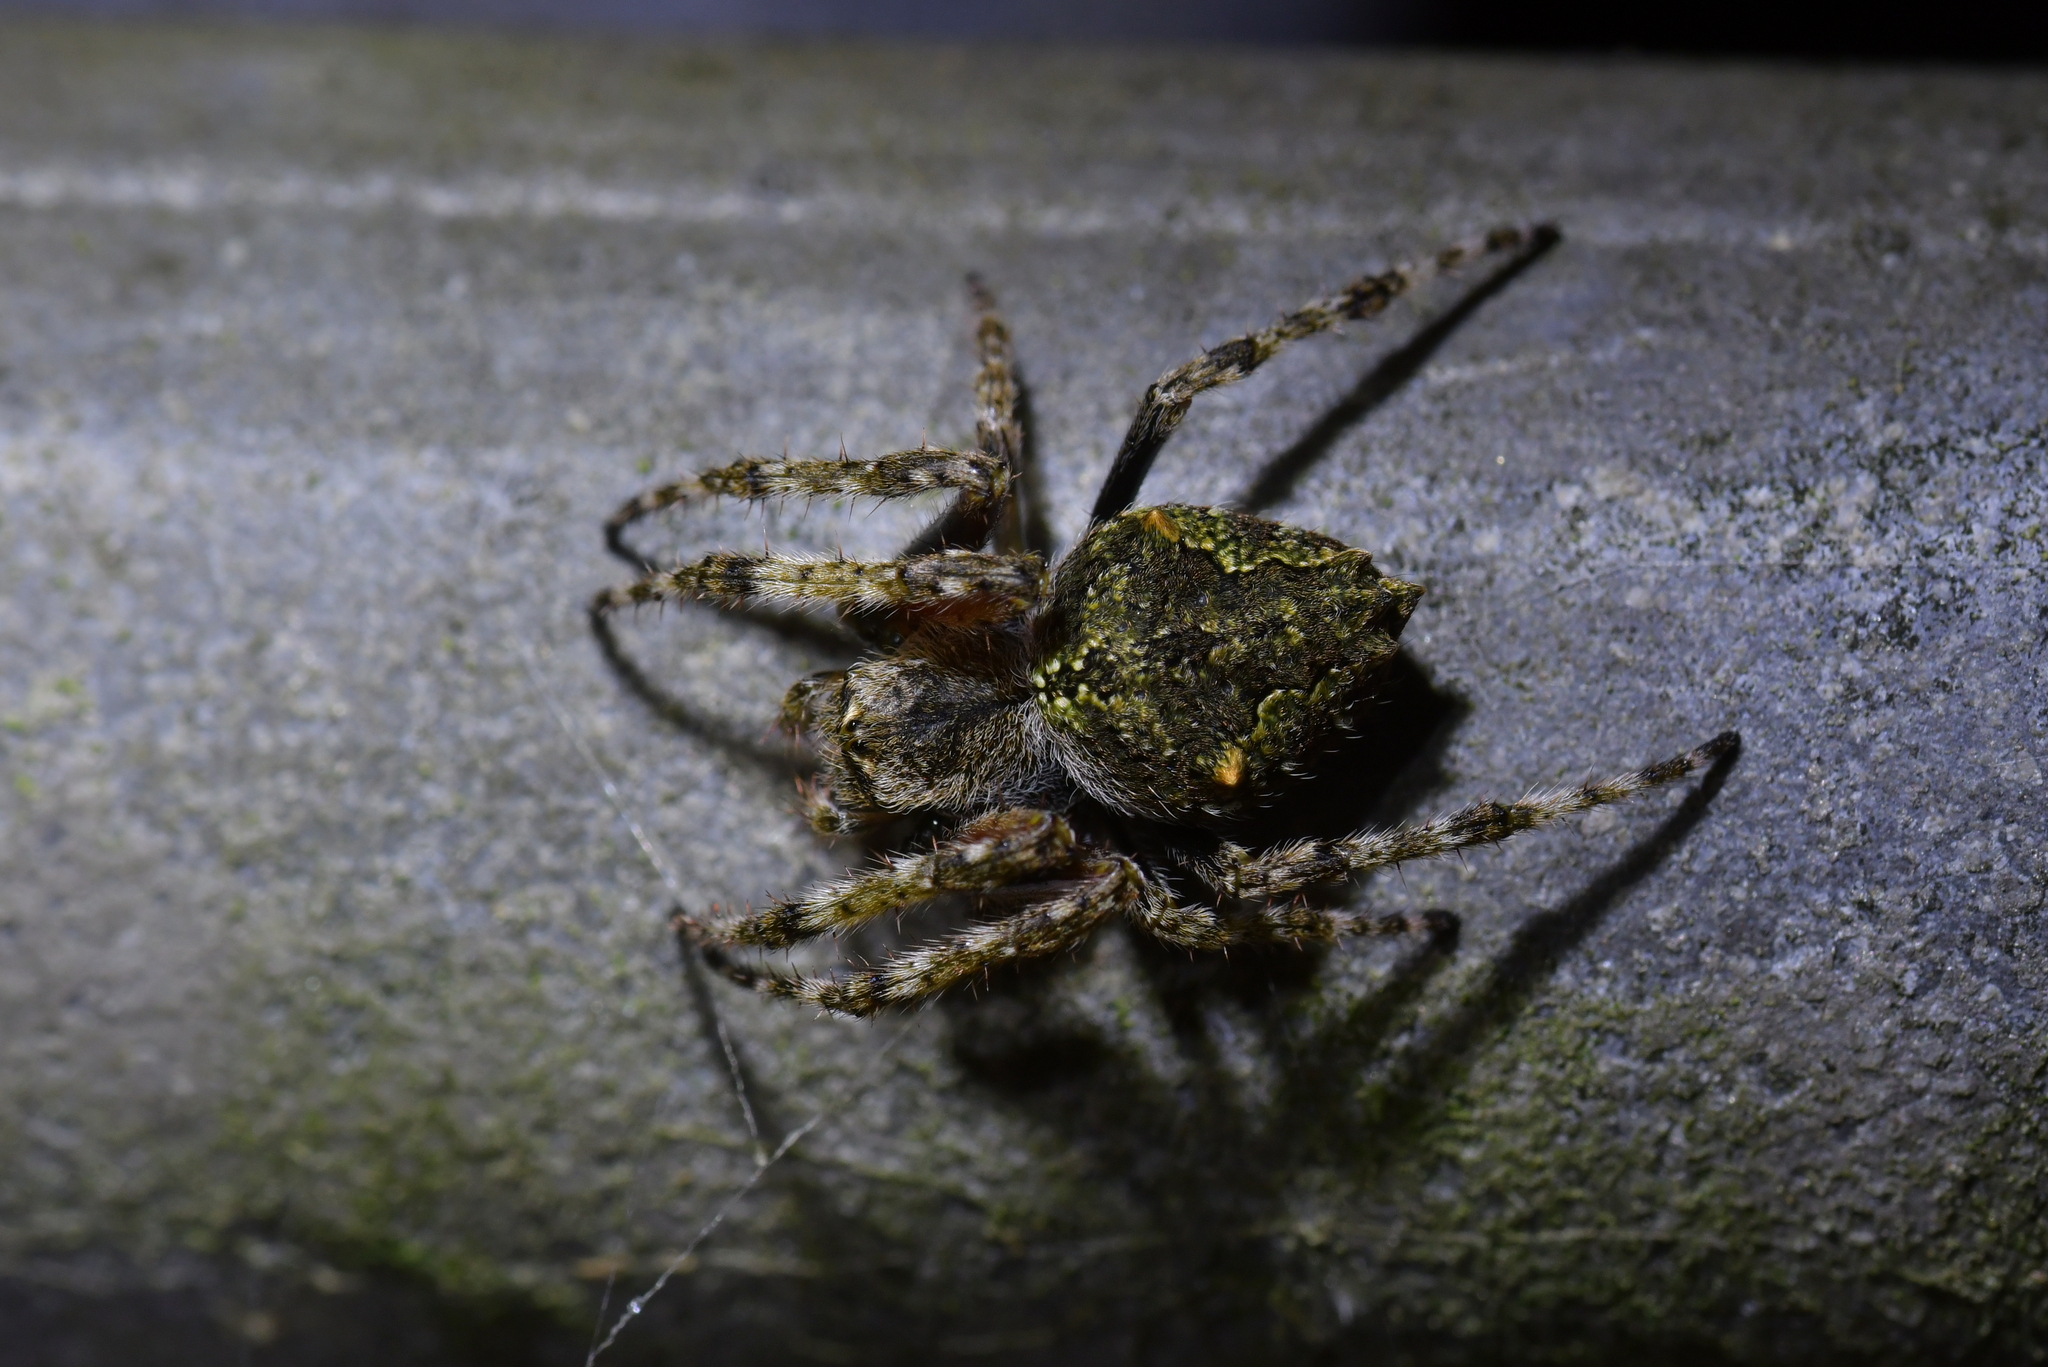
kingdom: Animalia
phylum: Arthropoda
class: Arachnida
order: Araneae
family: Araneidae
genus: Eriophora
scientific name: Eriophora pustulosa
